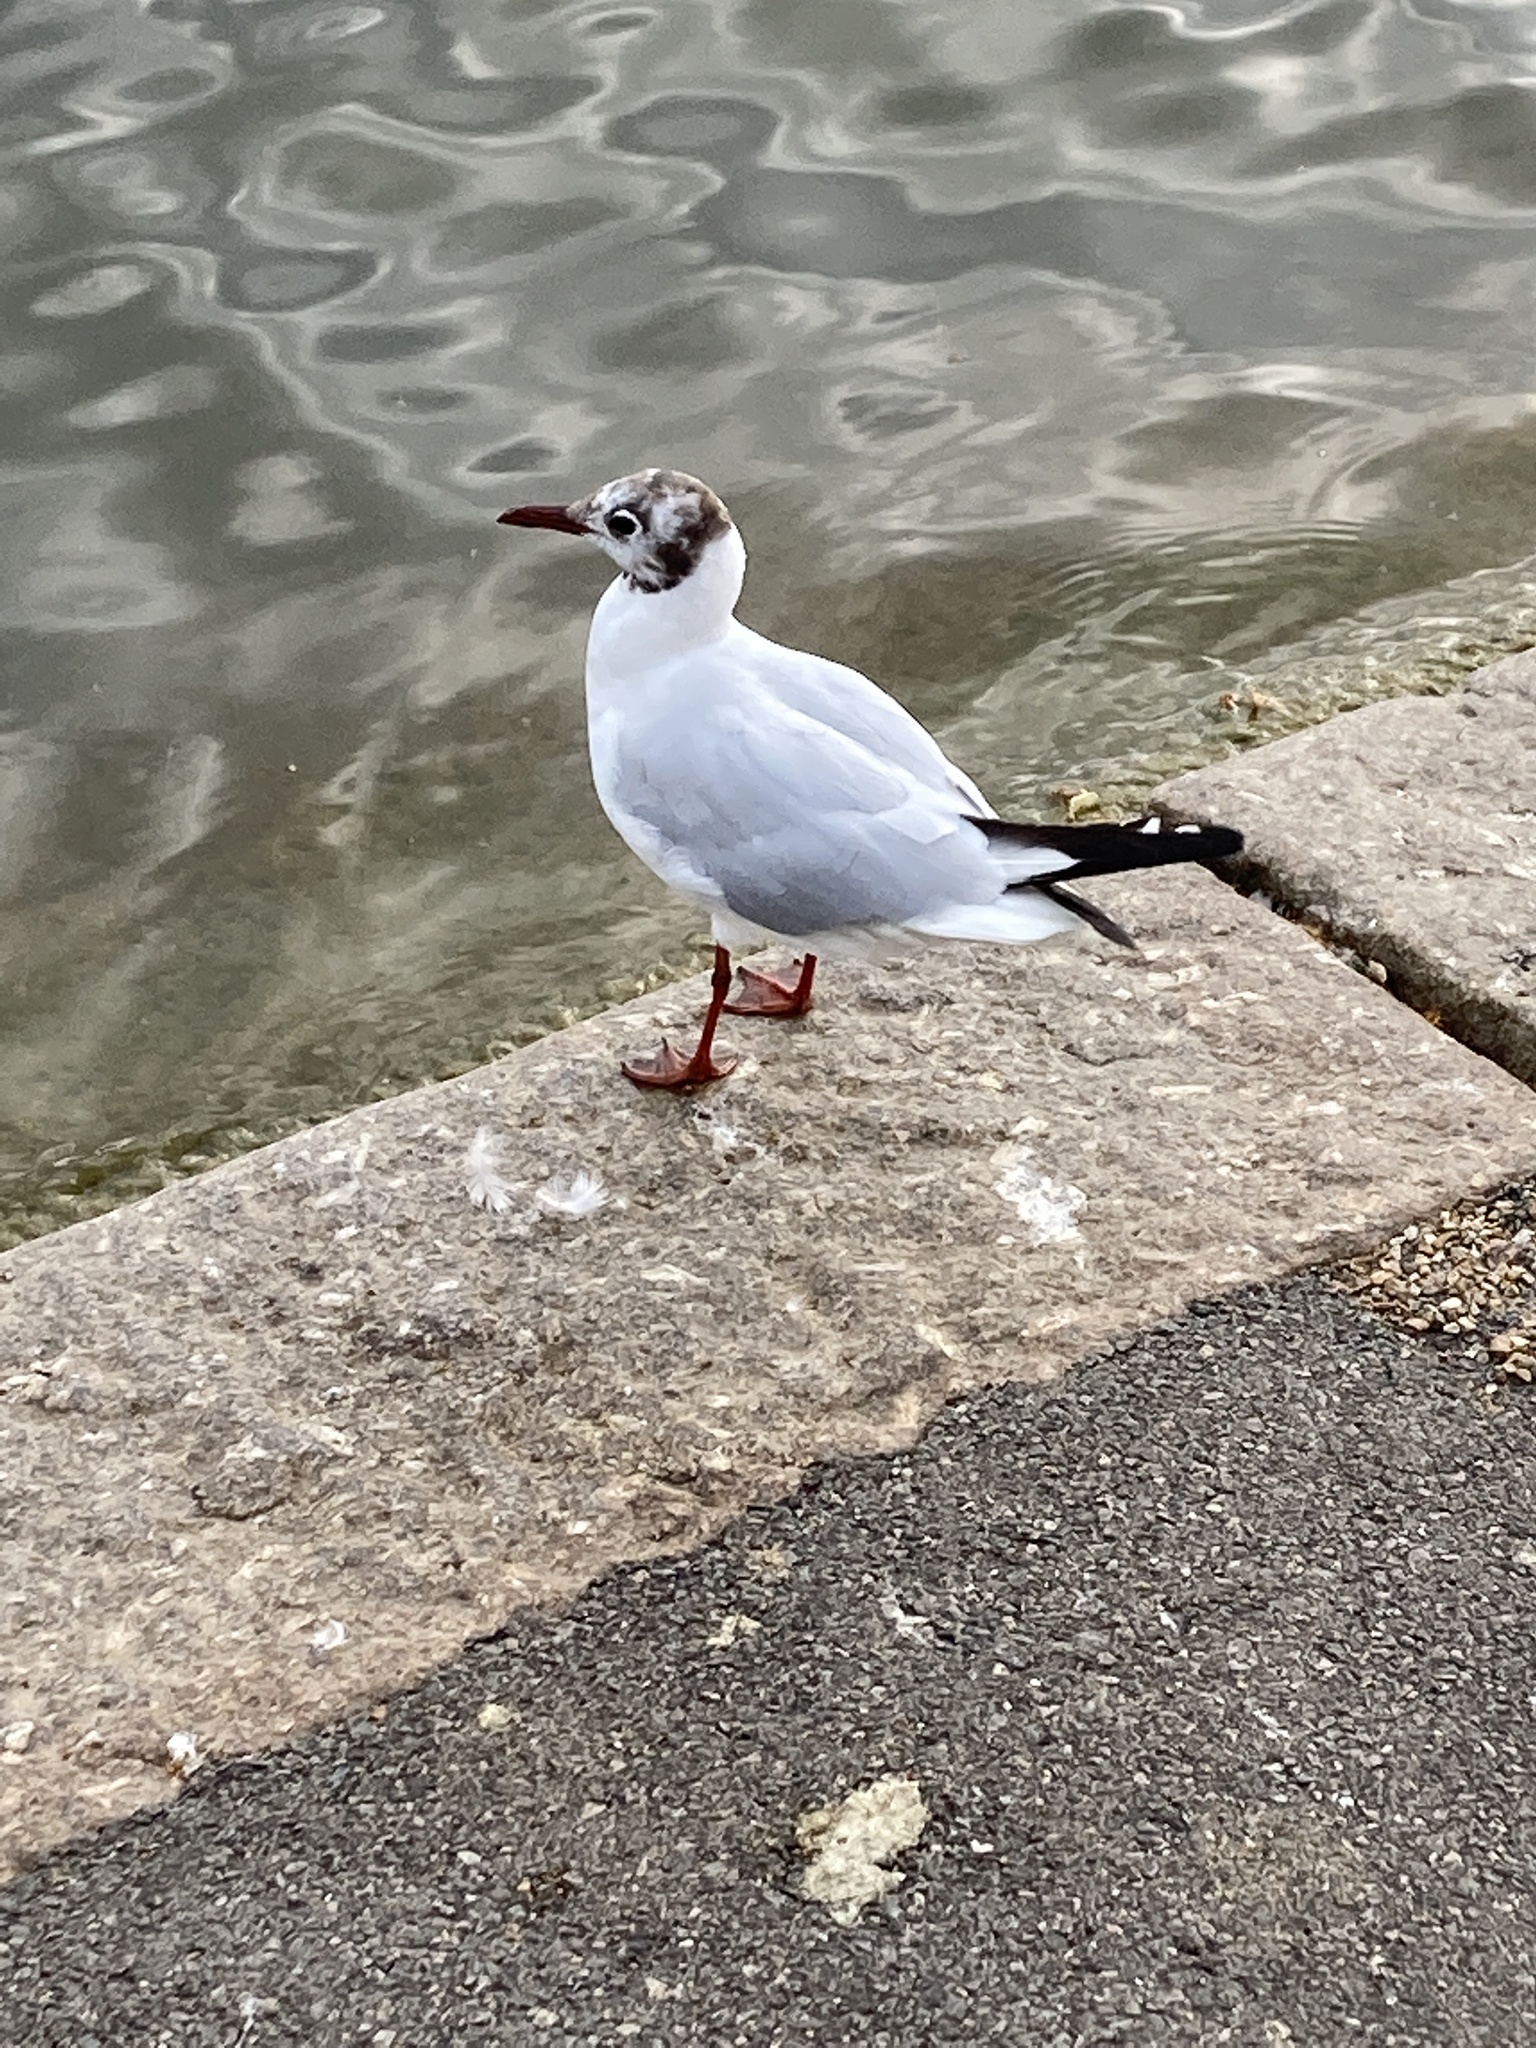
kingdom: Animalia
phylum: Chordata
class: Aves
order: Charadriiformes
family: Laridae
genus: Chroicocephalus
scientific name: Chroicocephalus ridibundus
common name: Black-headed gull
